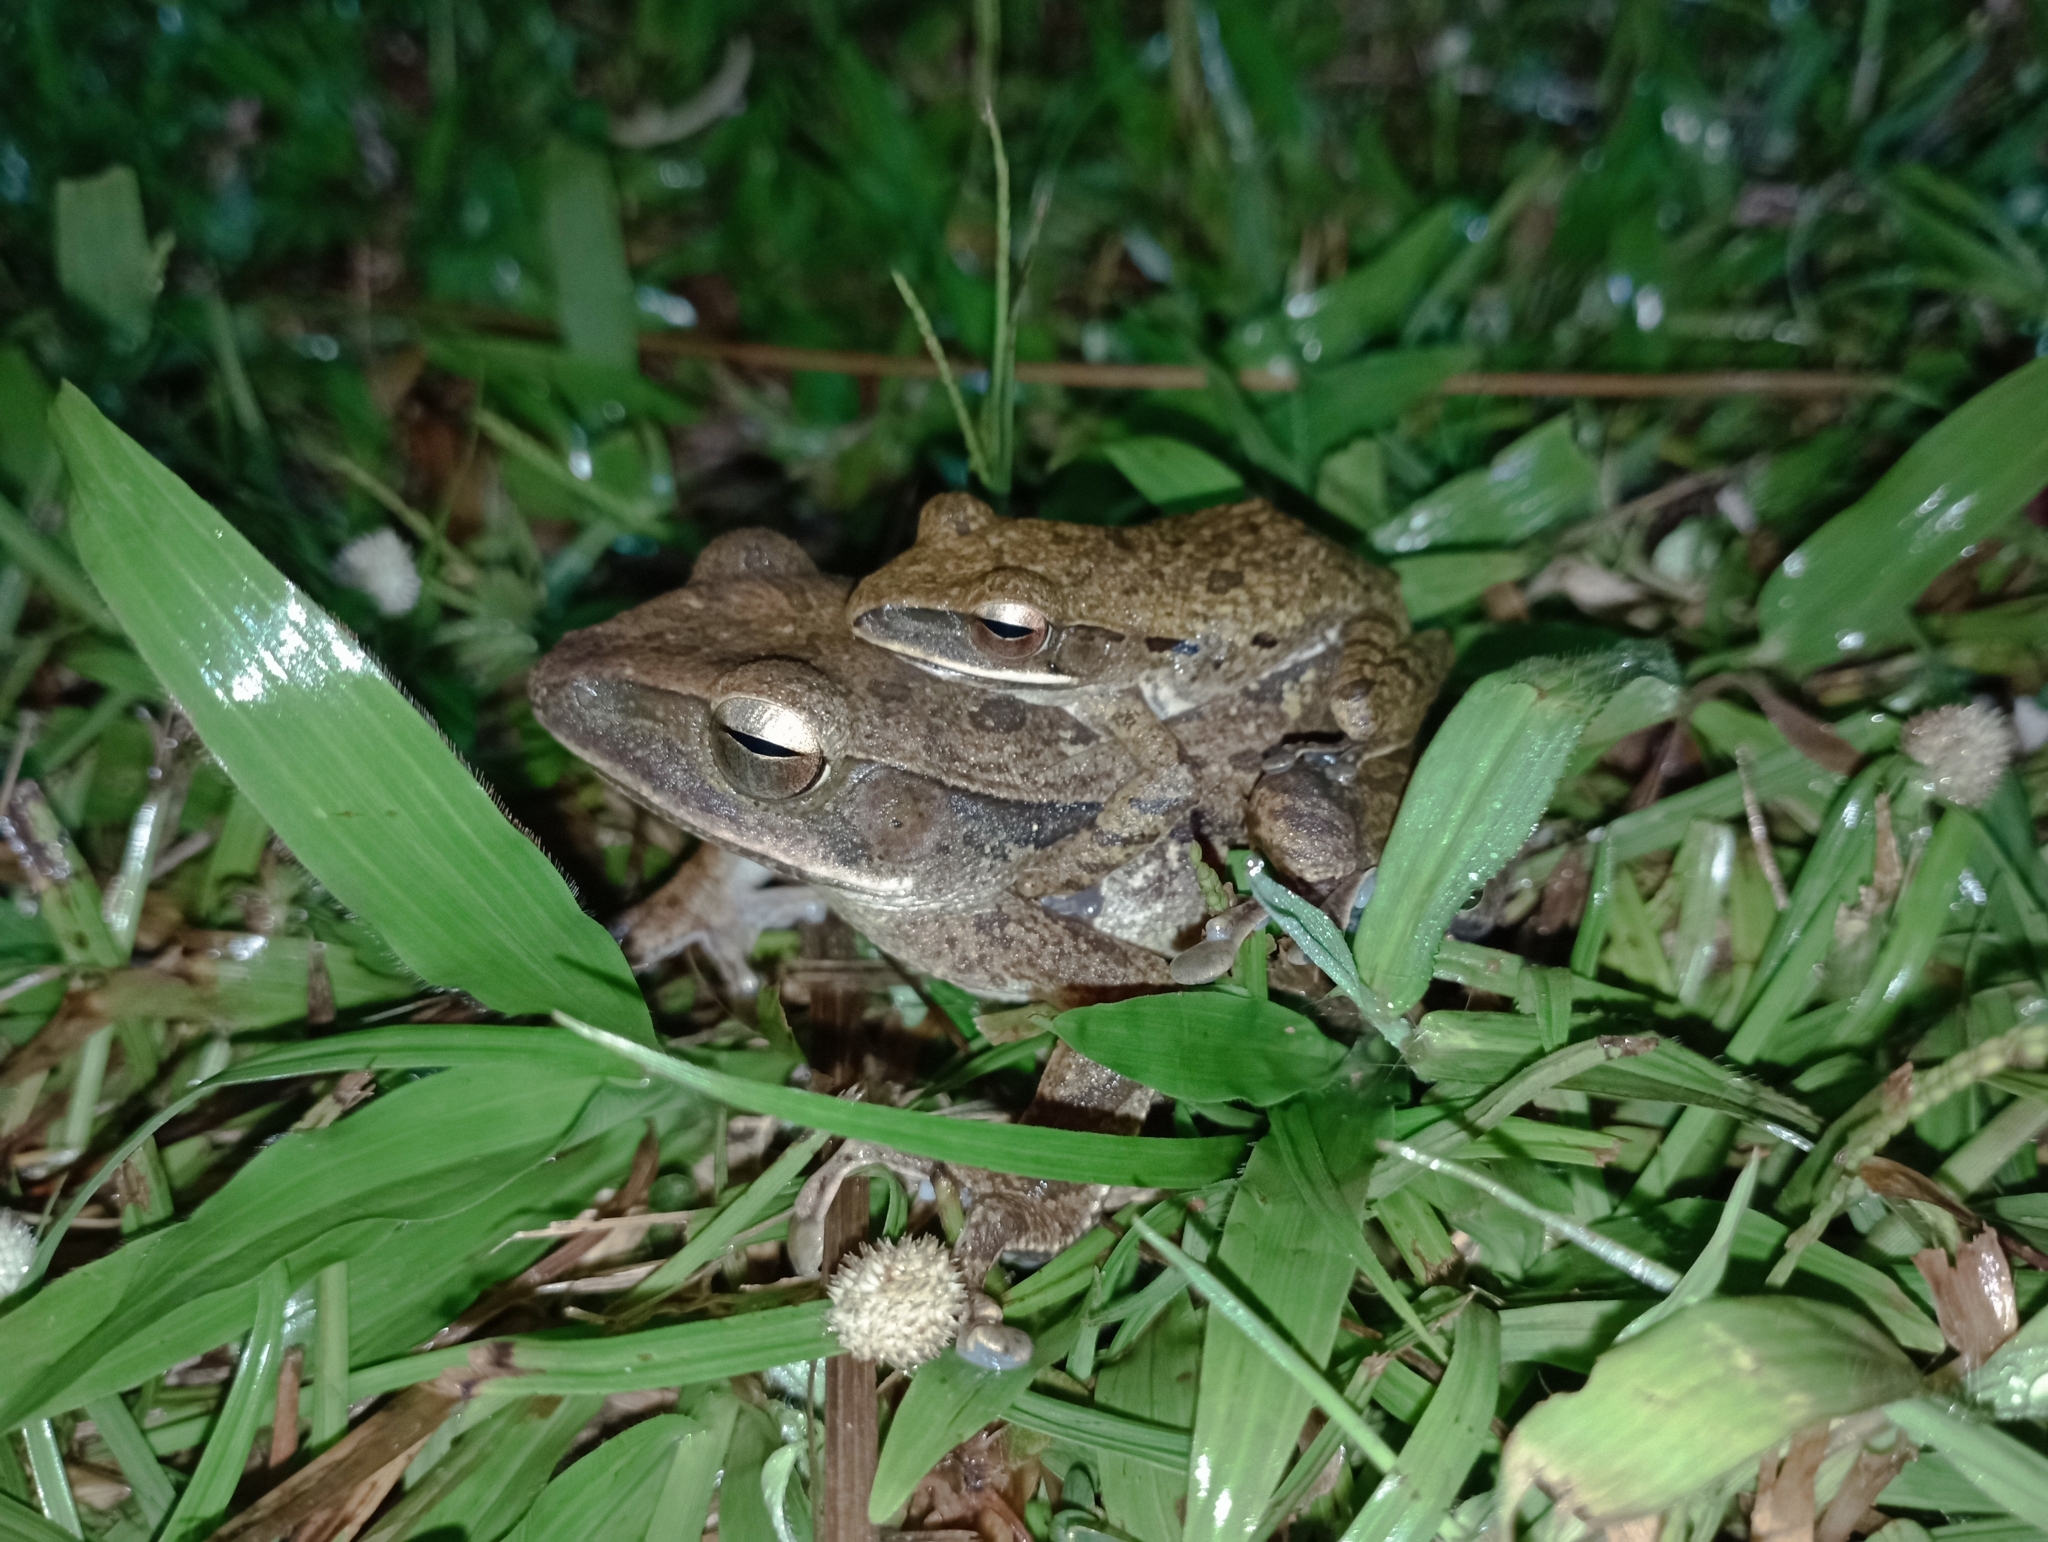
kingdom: Animalia
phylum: Chordata
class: Amphibia
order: Anura
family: Rhacophoridae
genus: Polypedates
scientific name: Polypedates leucomystax
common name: Common tree frog/four-lined tree frog
